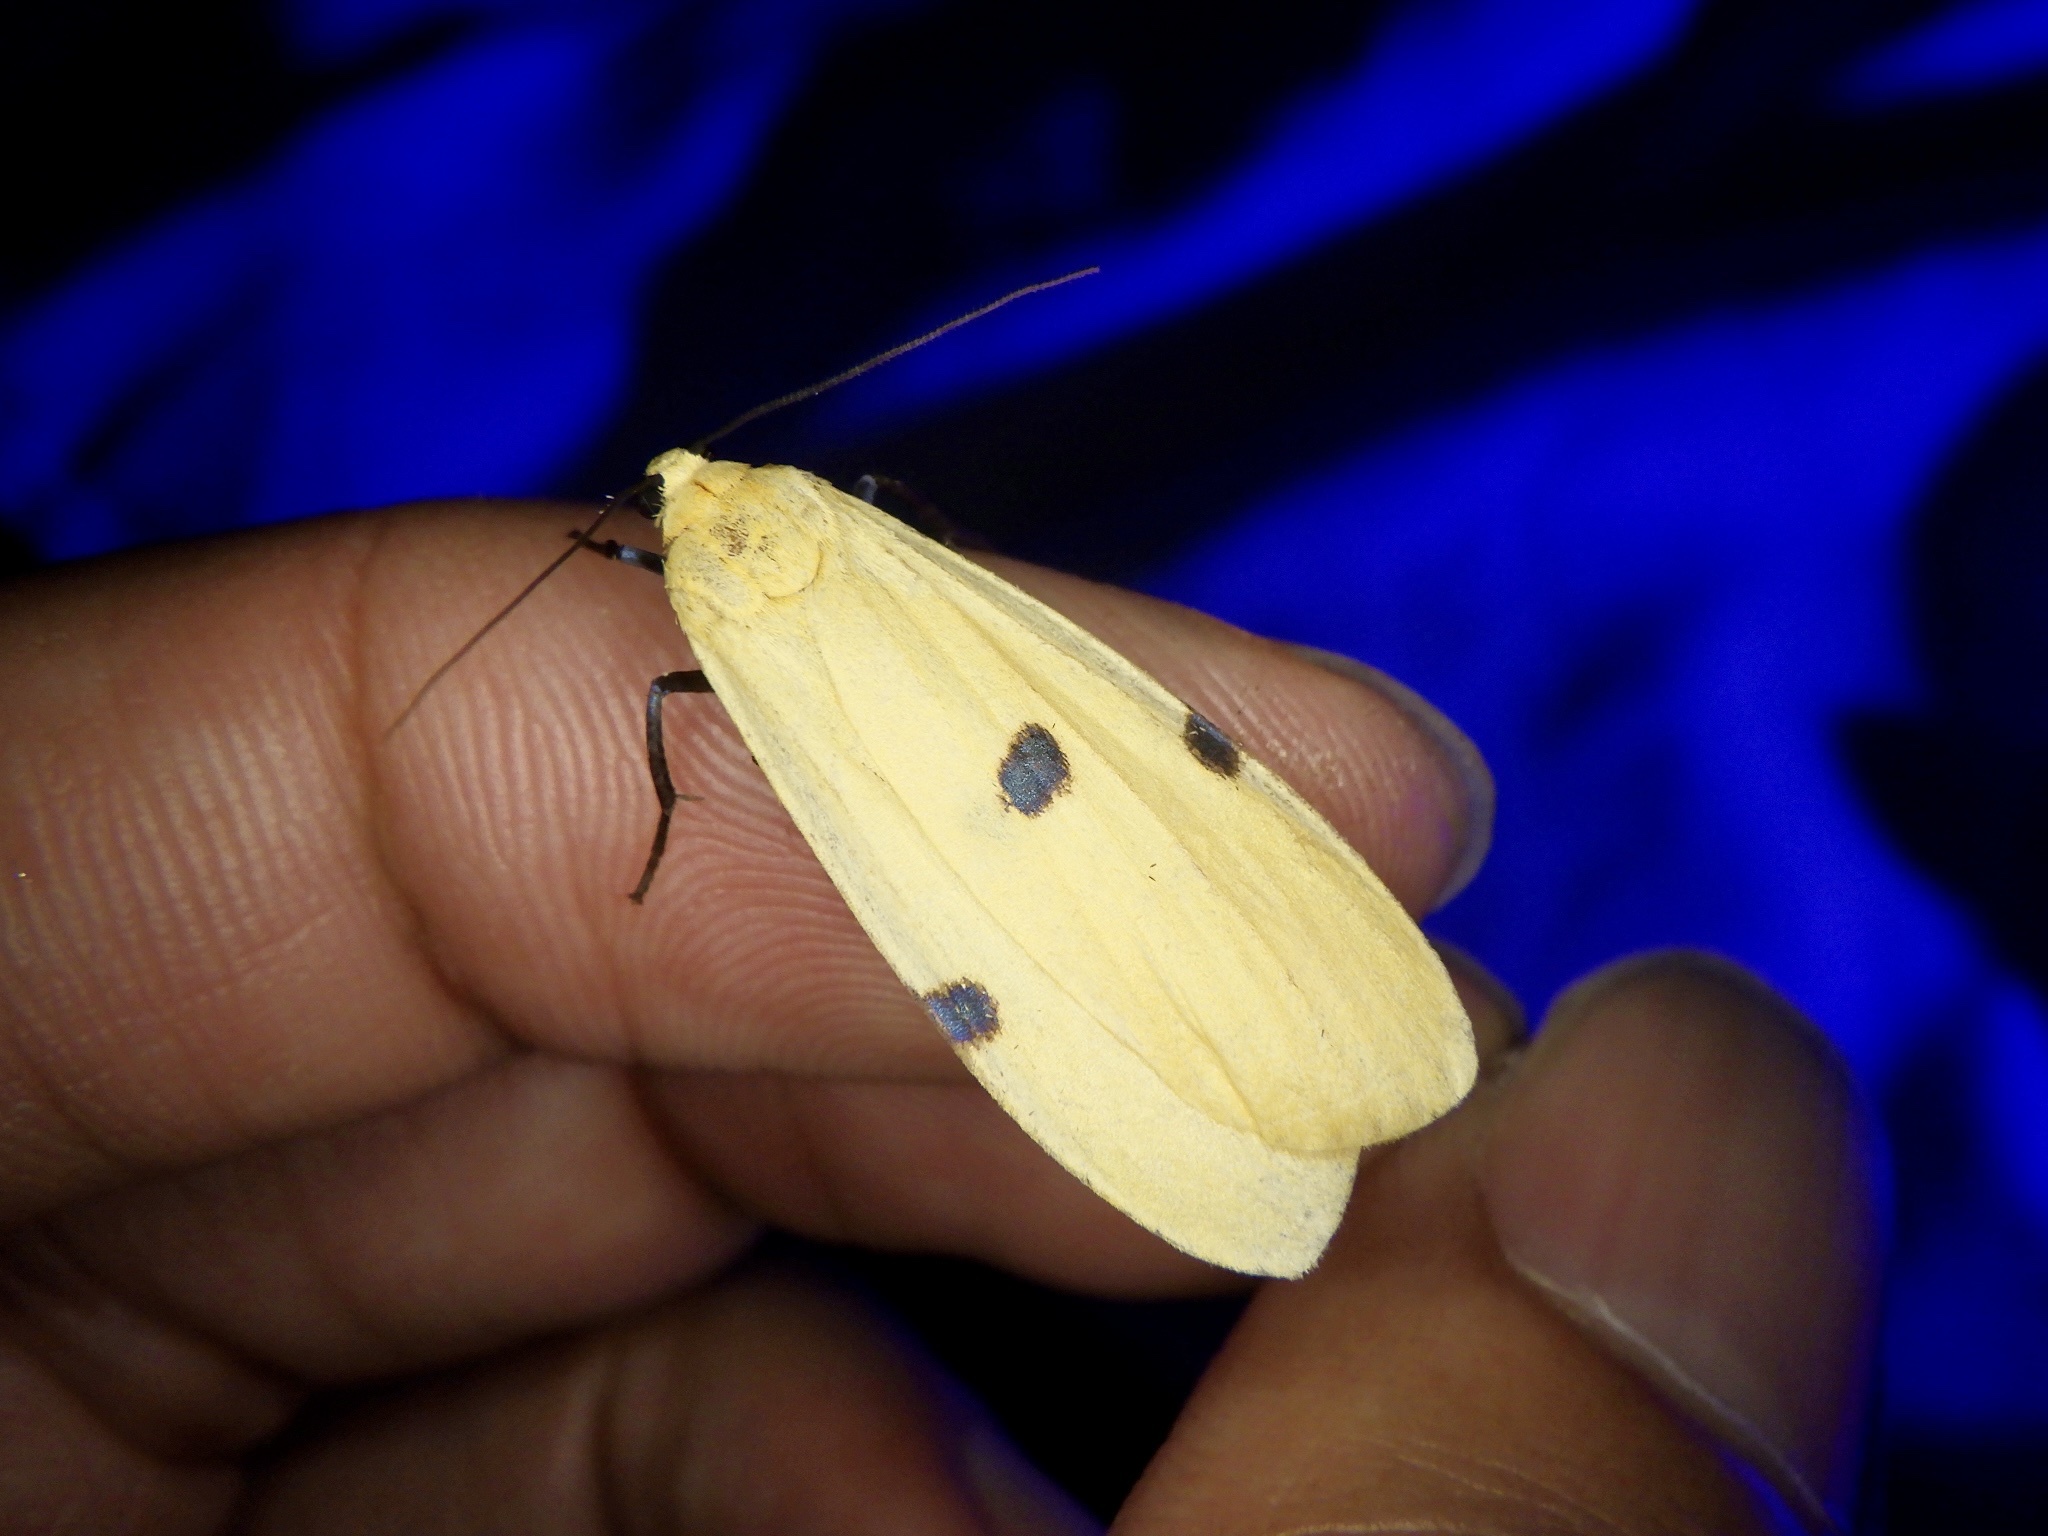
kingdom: Animalia
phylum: Arthropoda
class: Insecta
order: Lepidoptera
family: Erebidae
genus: Lithosia
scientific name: Lithosia quadra
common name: Four-spotted footman
